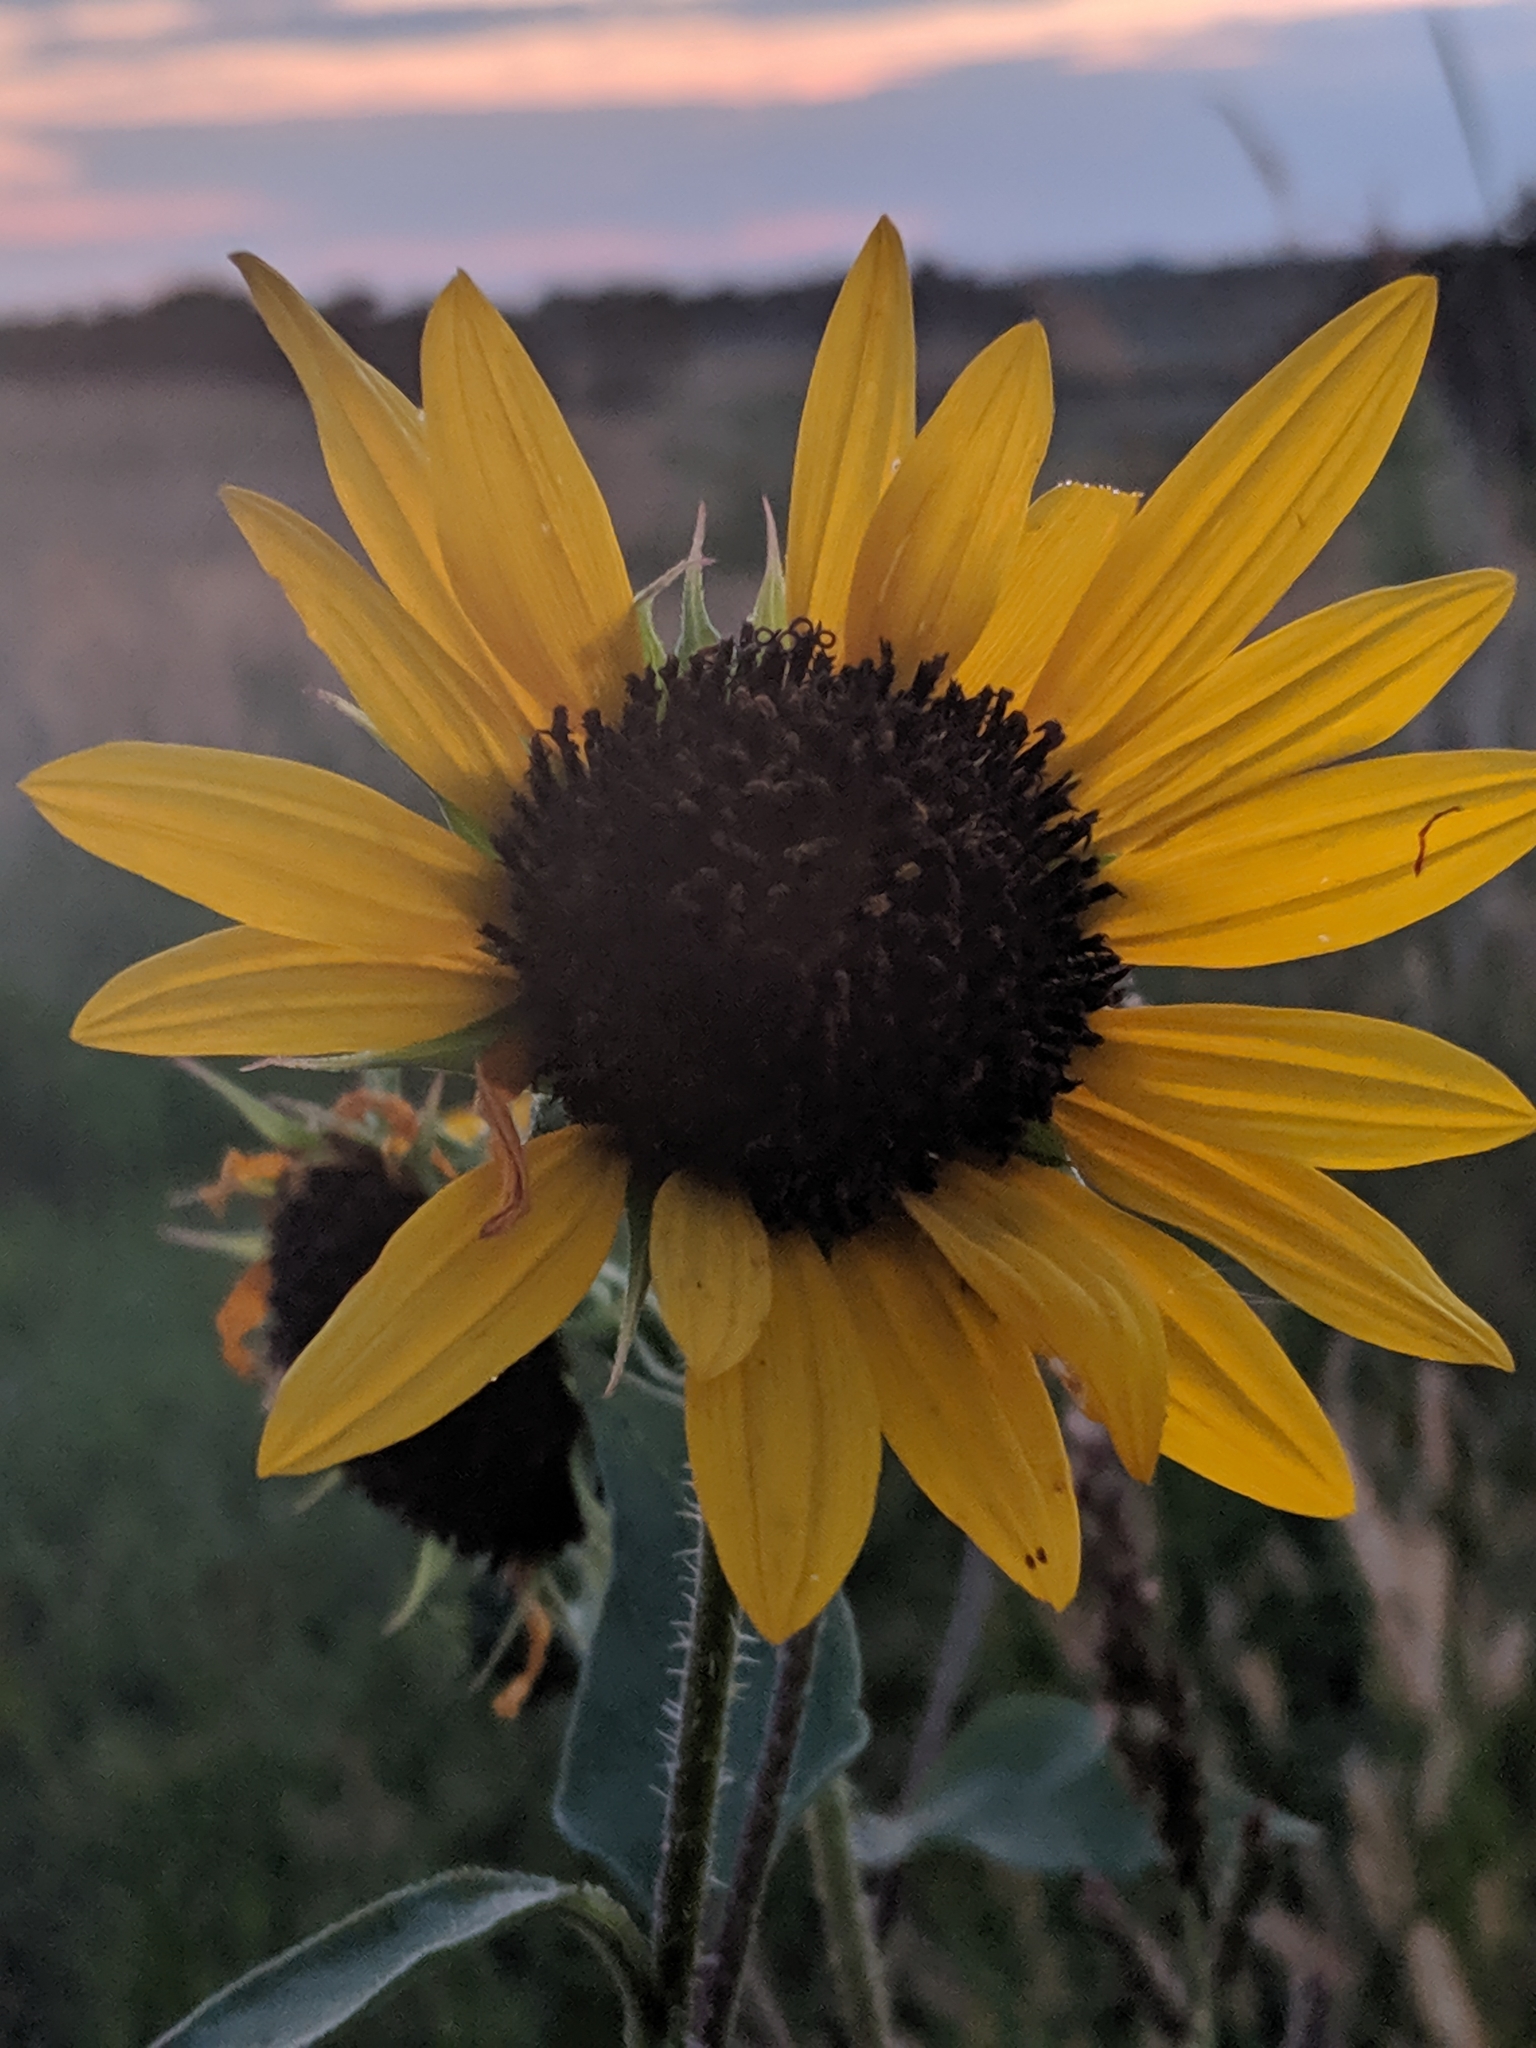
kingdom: Plantae
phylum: Tracheophyta
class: Magnoliopsida
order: Asterales
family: Asteraceae
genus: Helianthus
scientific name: Helianthus annuus
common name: Sunflower
